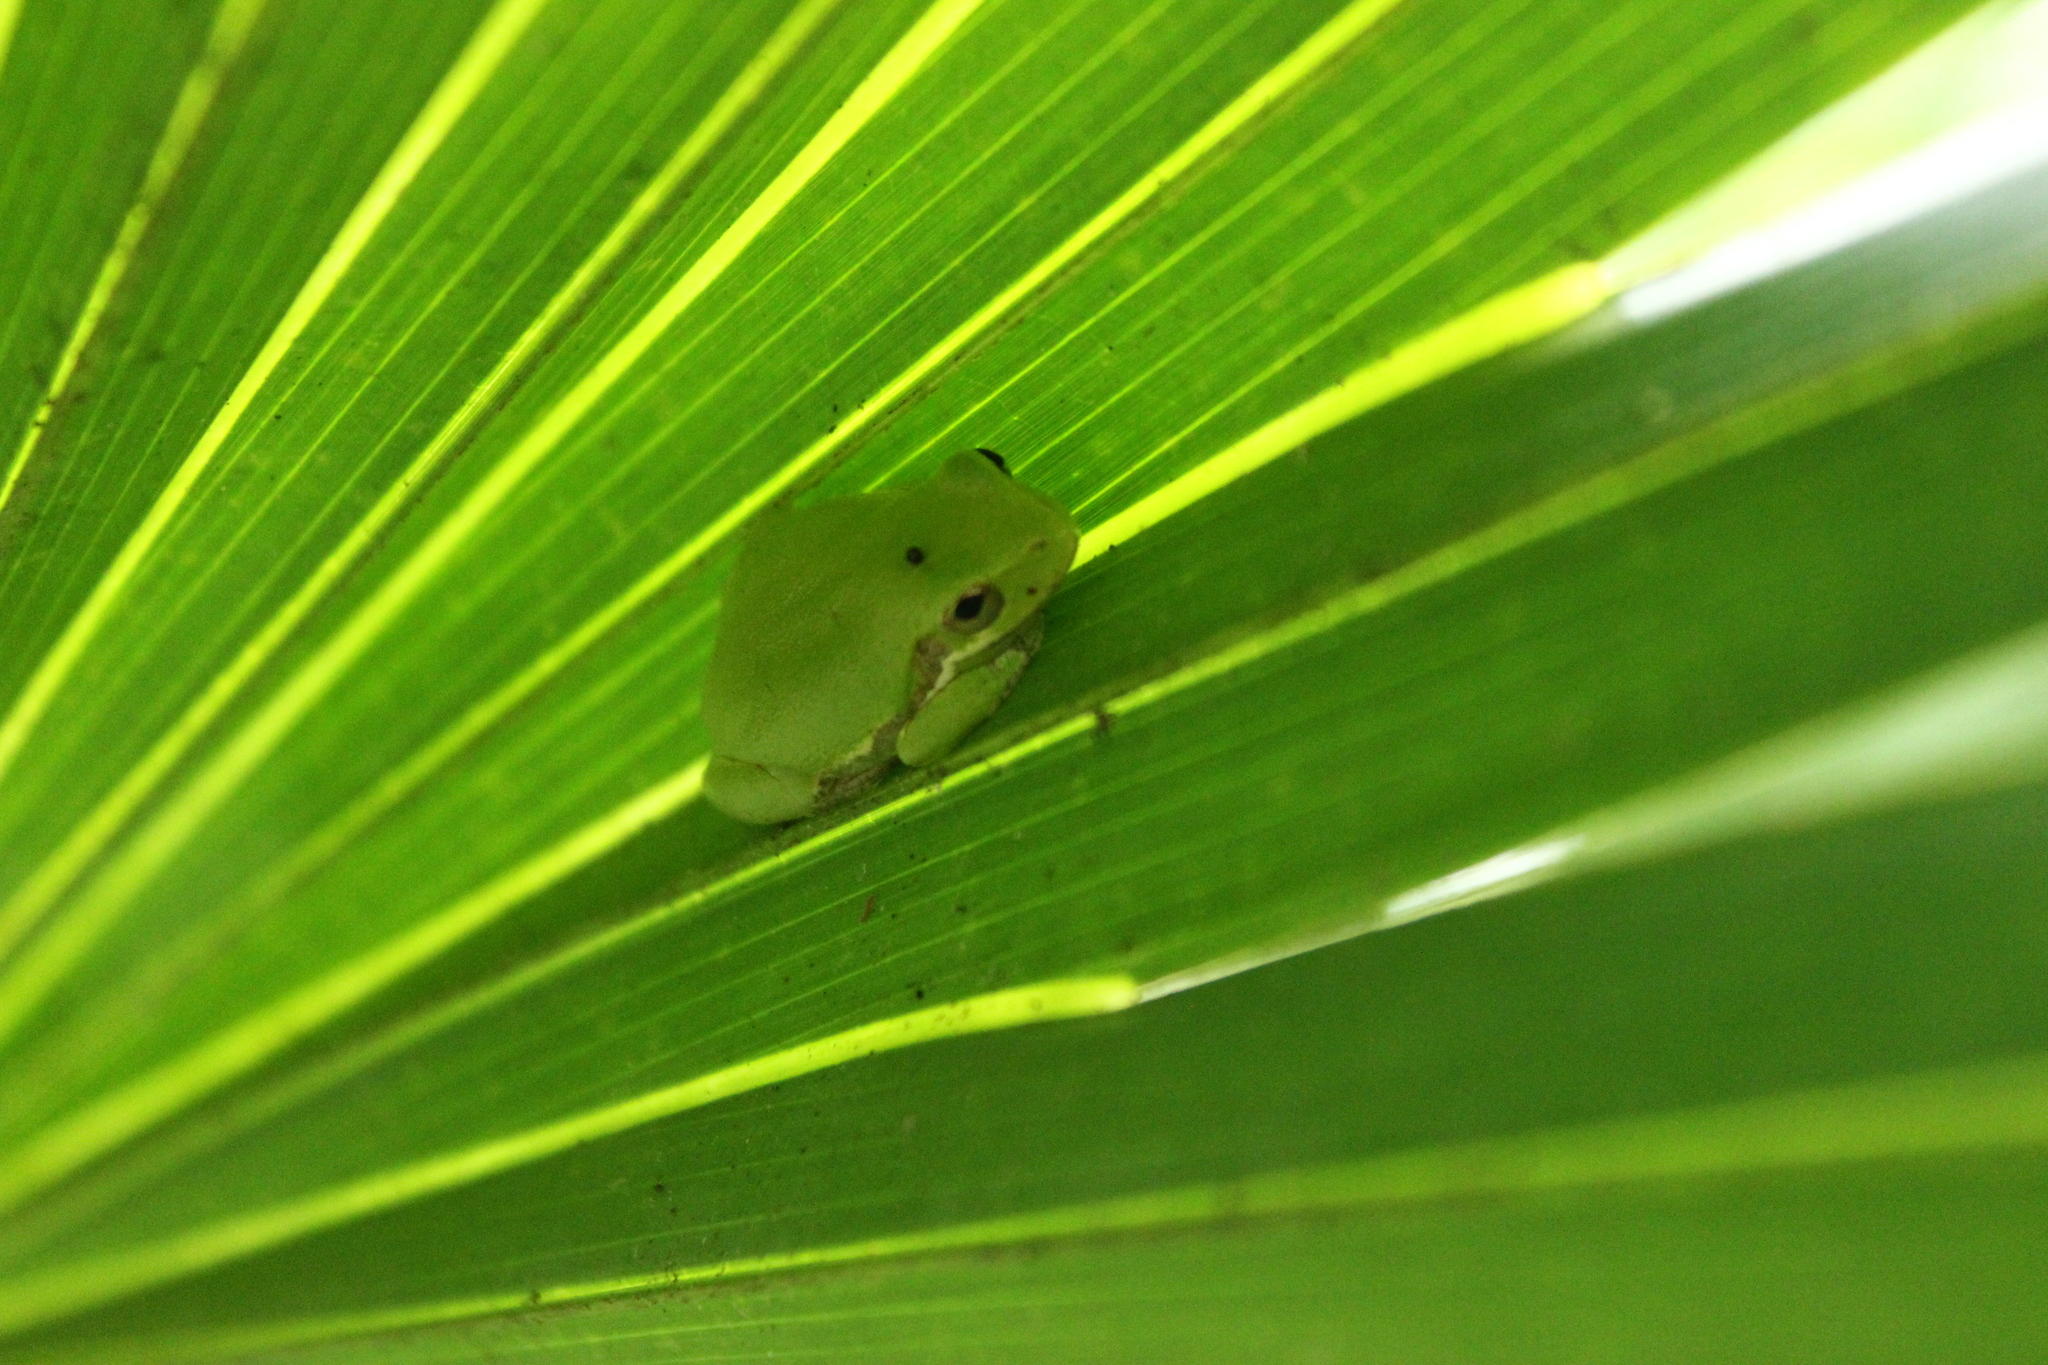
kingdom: Animalia
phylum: Chordata
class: Amphibia
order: Anura
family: Hylidae
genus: Dryophytes
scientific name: Dryophytes squirellus
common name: Squirrel treefrog
